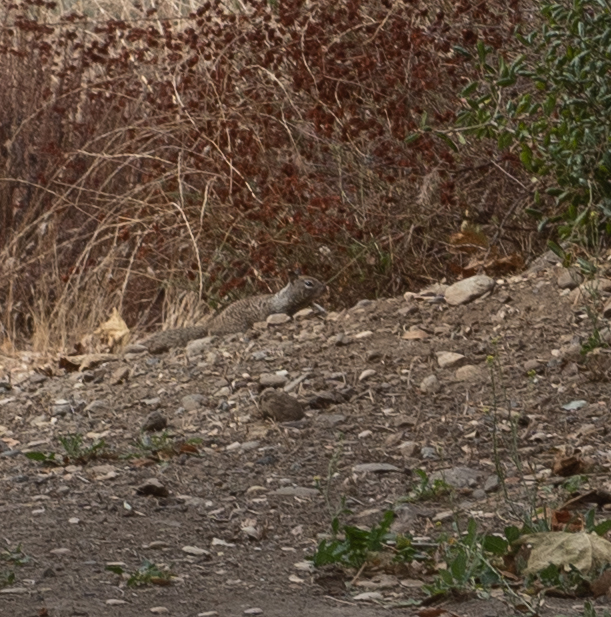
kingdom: Animalia
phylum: Chordata
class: Mammalia
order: Rodentia
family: Sciuridae
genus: Otospermophilus
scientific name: Otospermophilus beecheyi
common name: California ground squirrel
